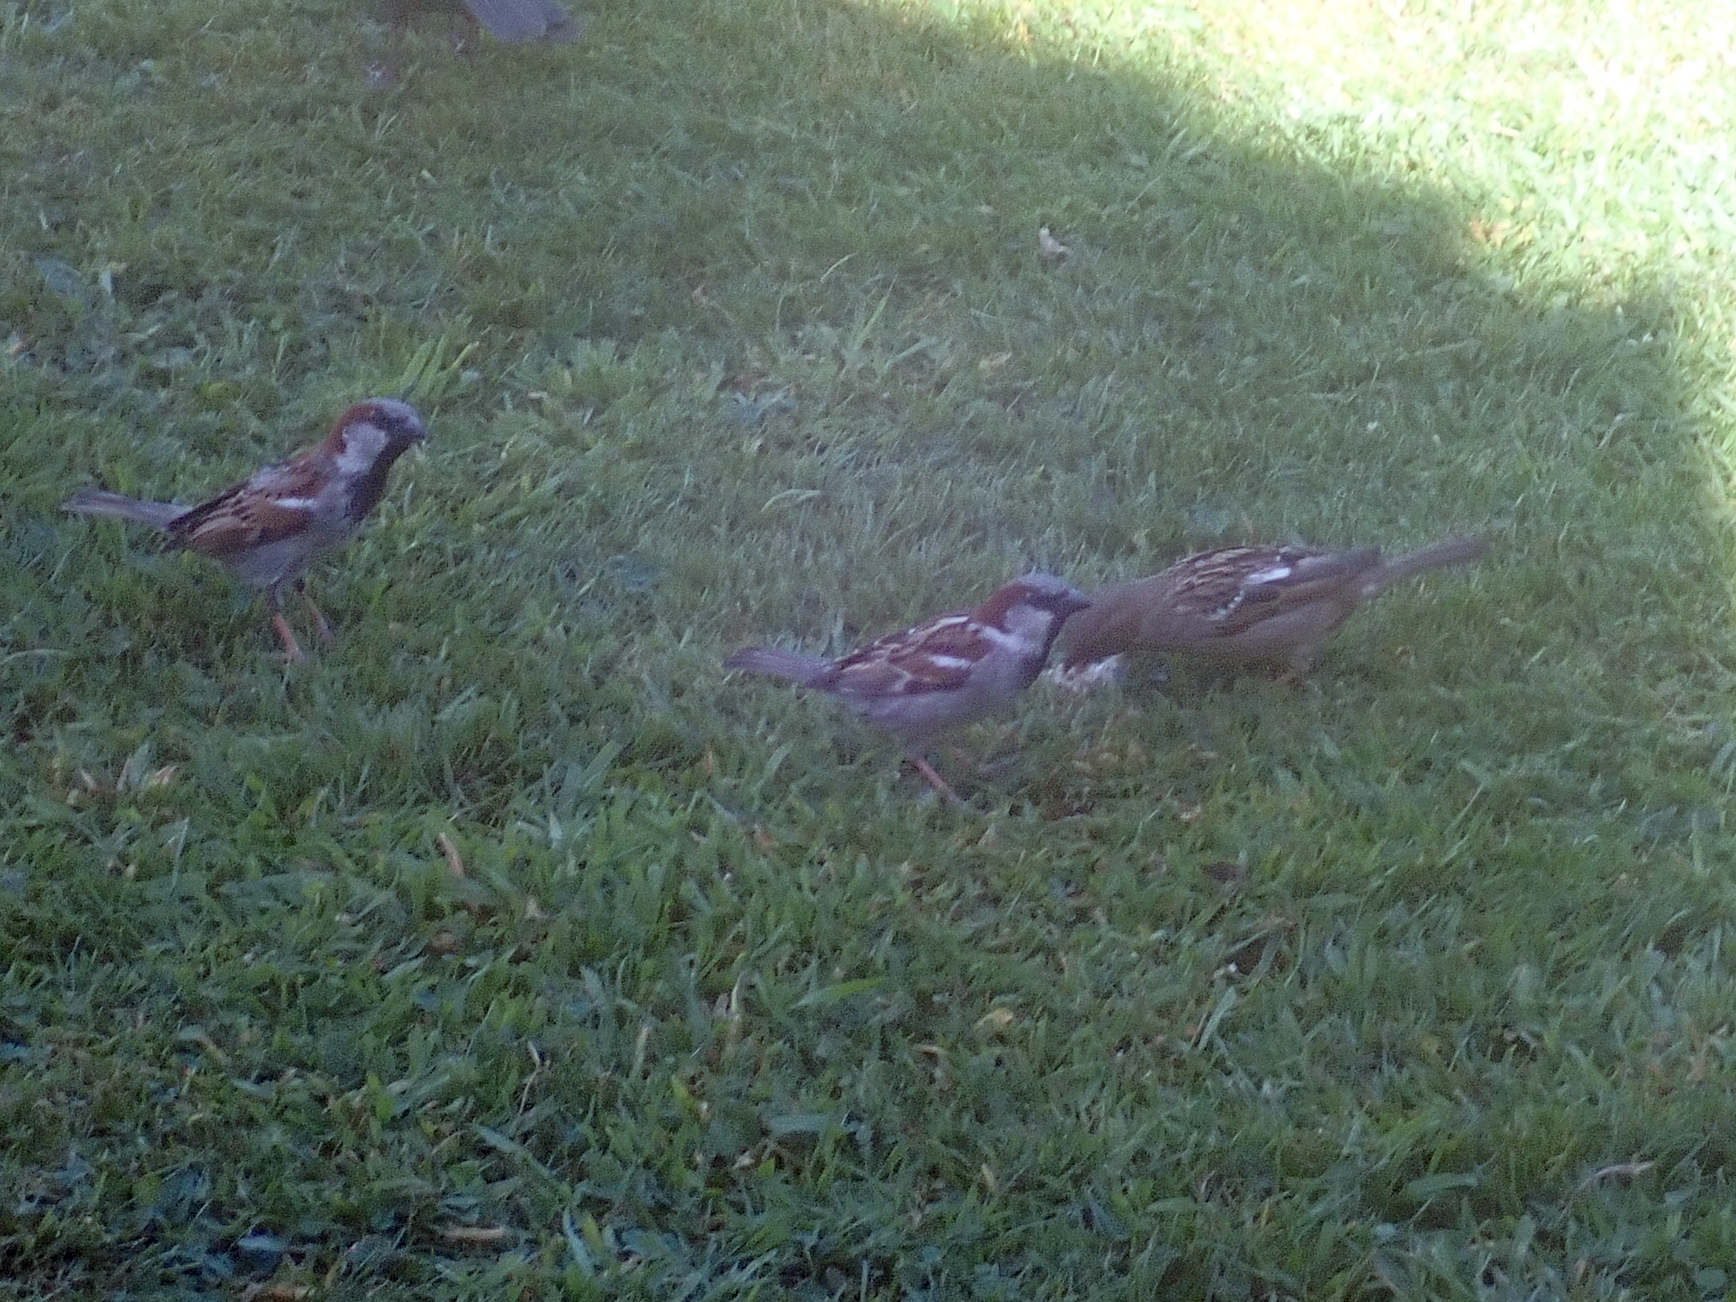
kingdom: Animalia
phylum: Chordata
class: Aves
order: Passeriformes
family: Passeridae
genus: Passer
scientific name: Passer domesticus
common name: House sparrow
